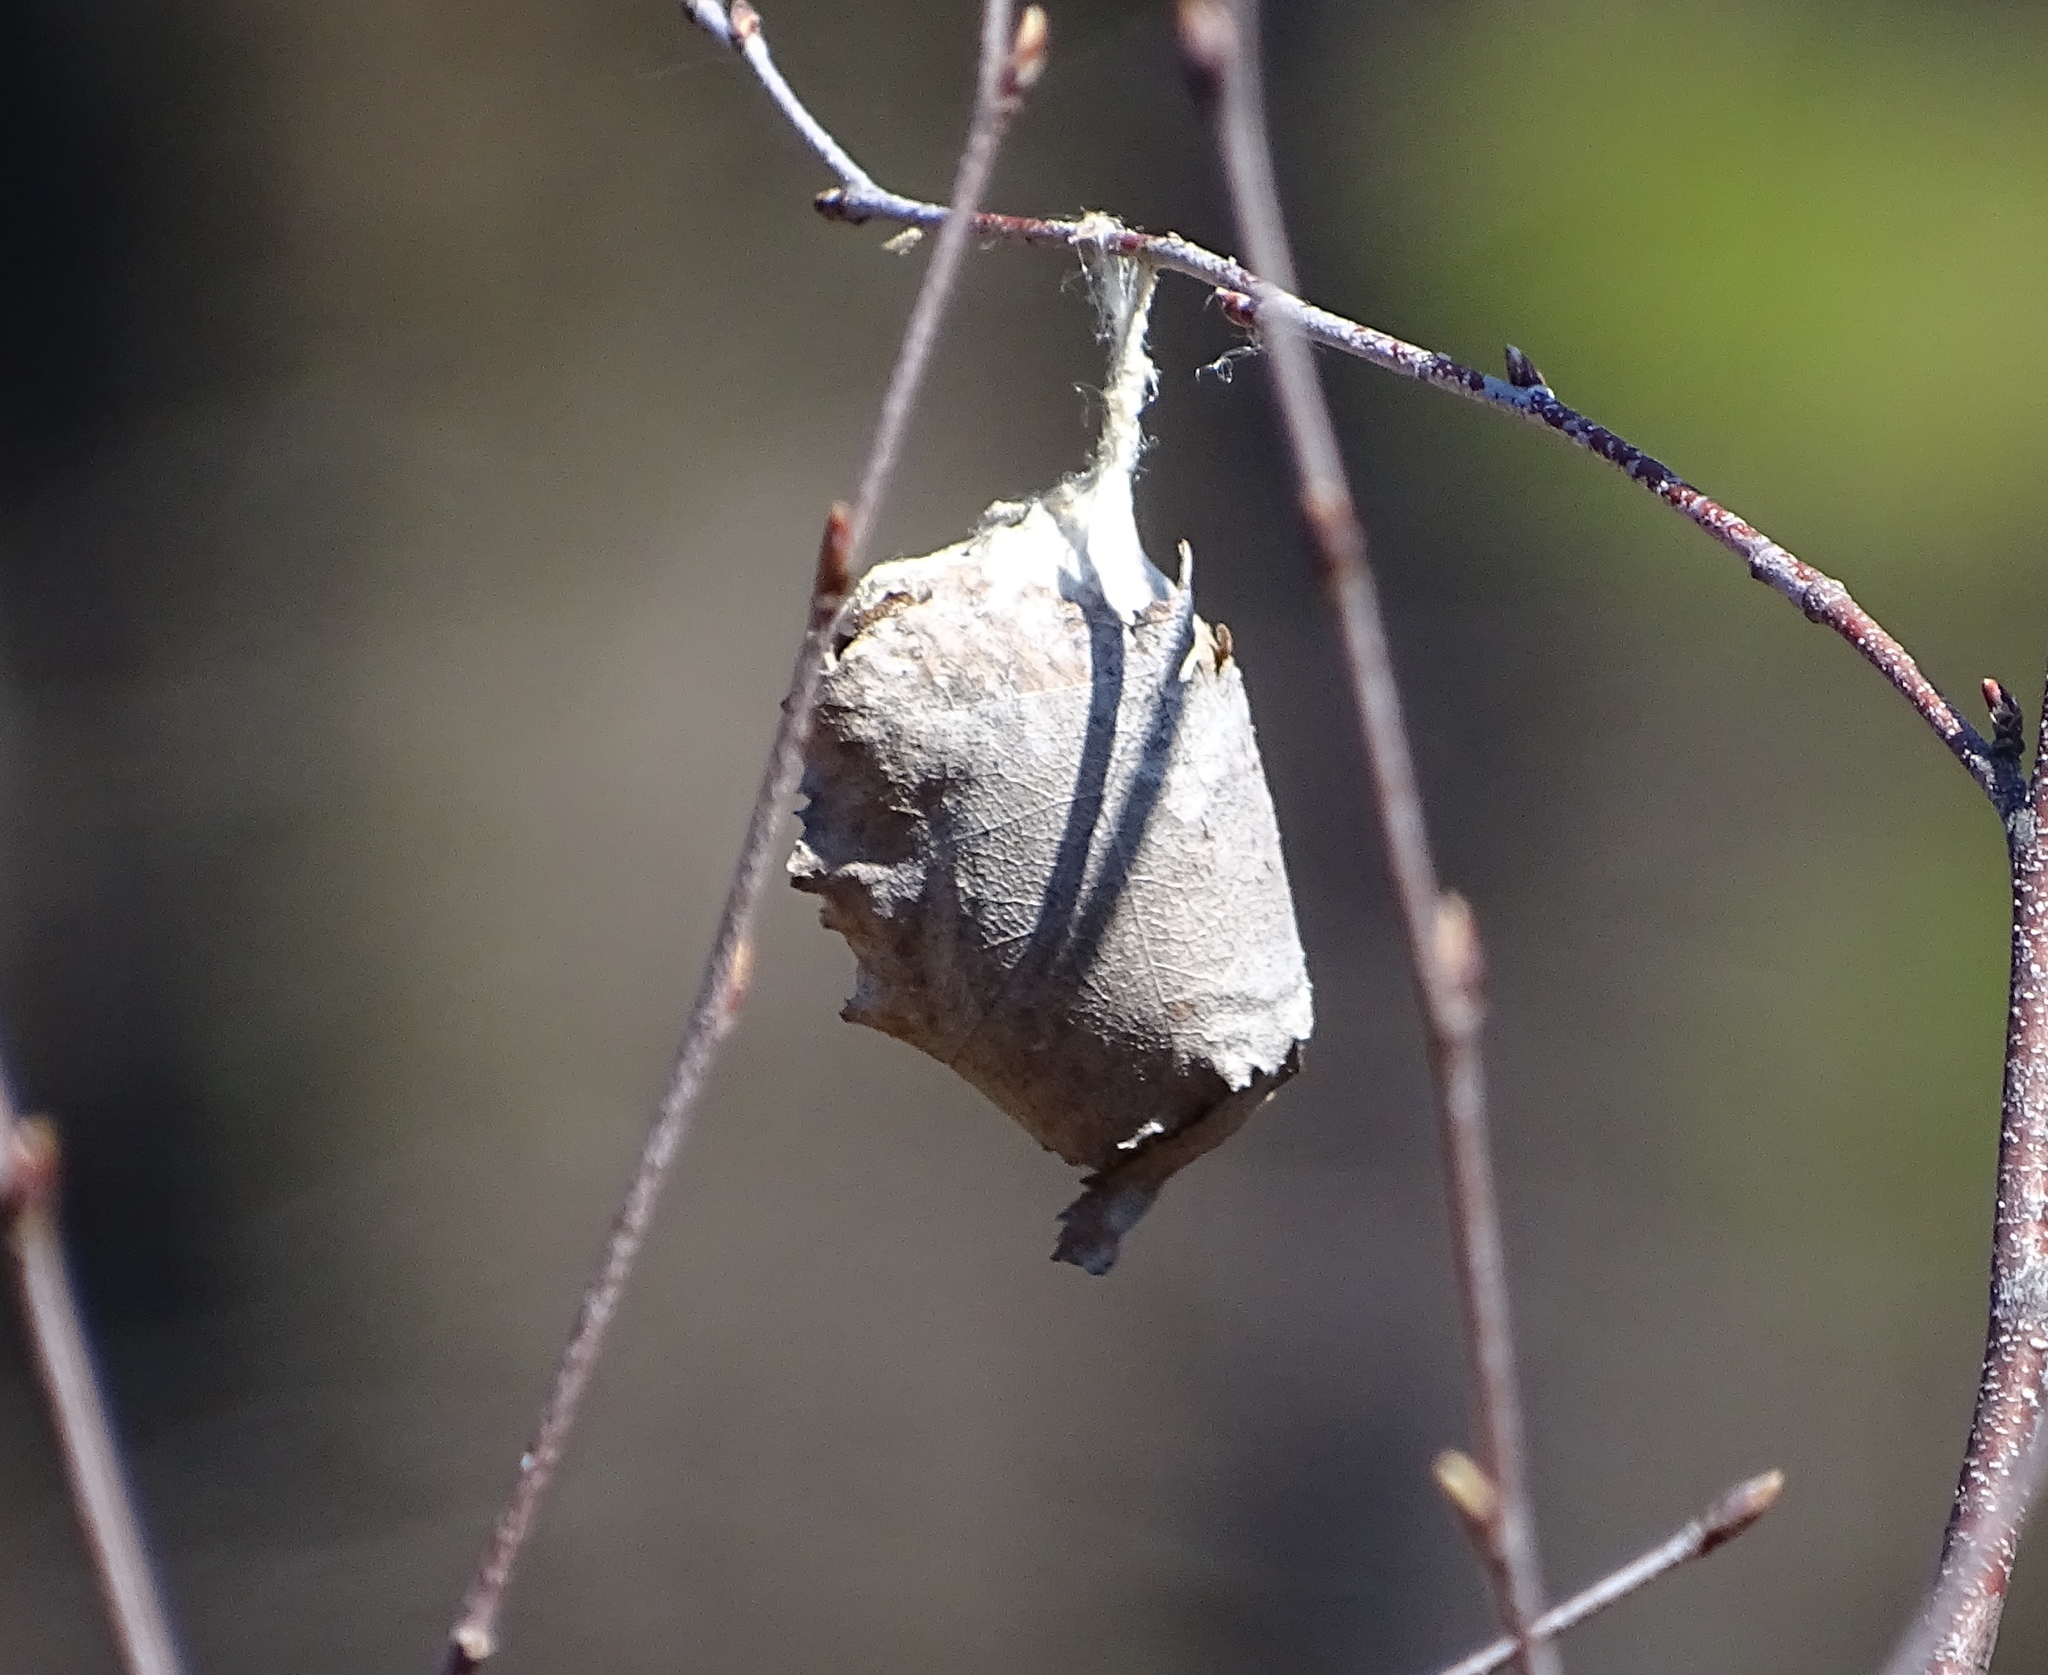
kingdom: Animalia
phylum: Arthropoda
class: Insecta
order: Lepidoptera
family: Saturniidae
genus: Antheraea
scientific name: Antheraea polyphemus
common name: Polyphemus moth
